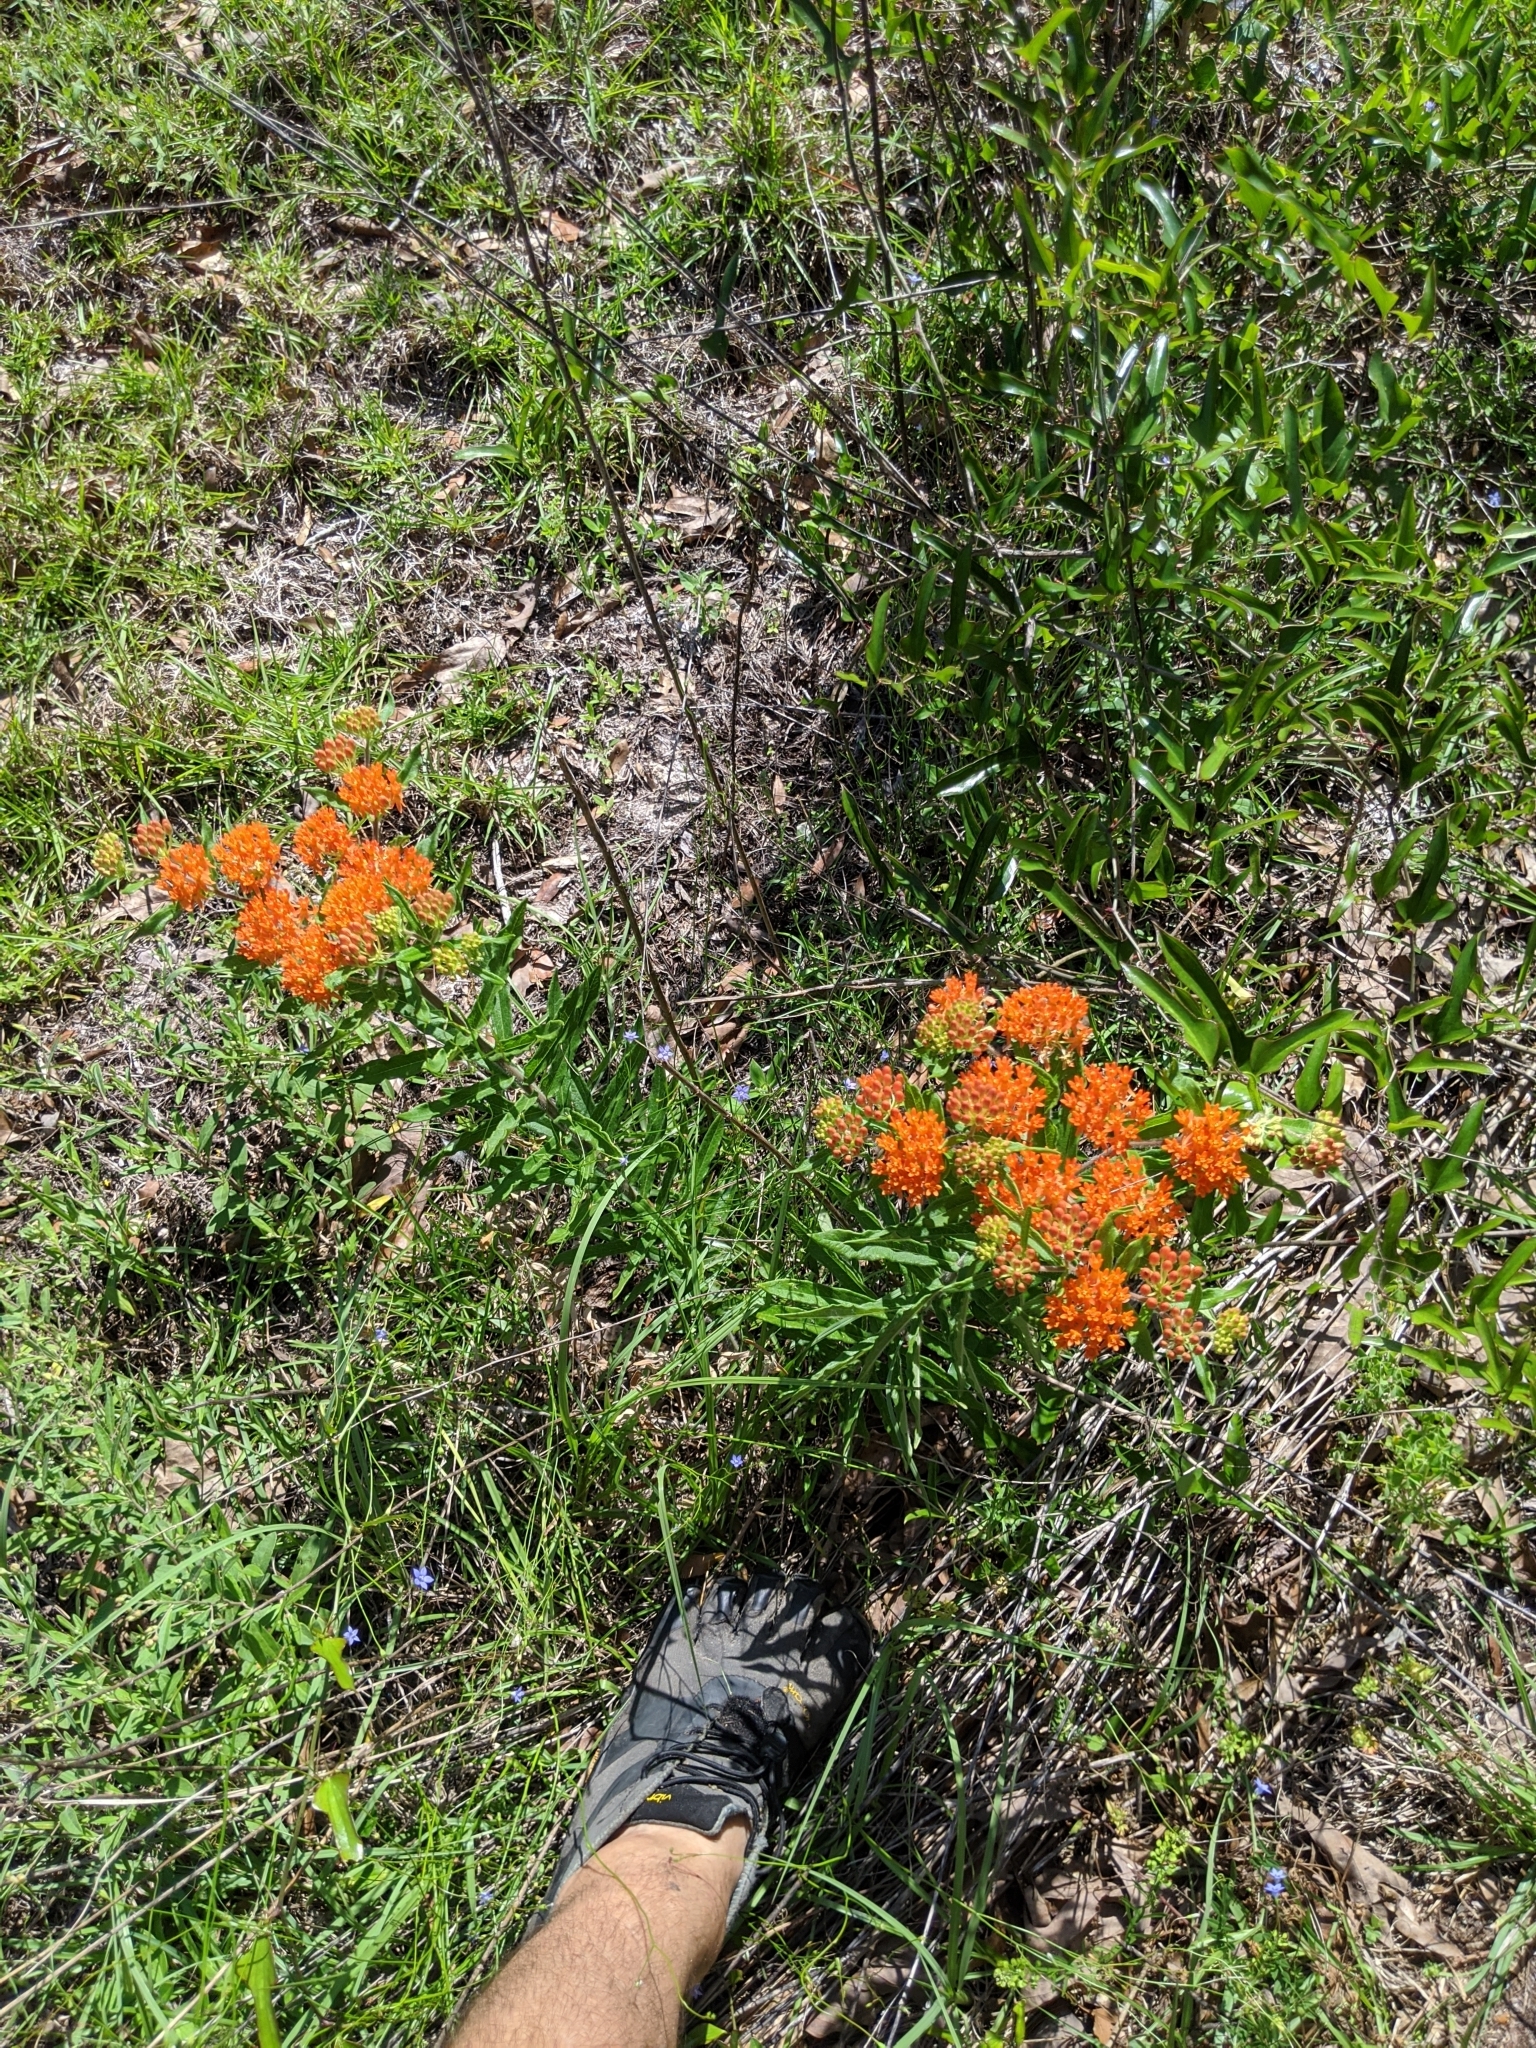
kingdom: Plantae
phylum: Tracheophyta
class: Magnoliopsida
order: Gentianales
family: Apocynaceae
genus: Asclepias
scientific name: Asclepias tuberosa
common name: Butterfly milkweed
